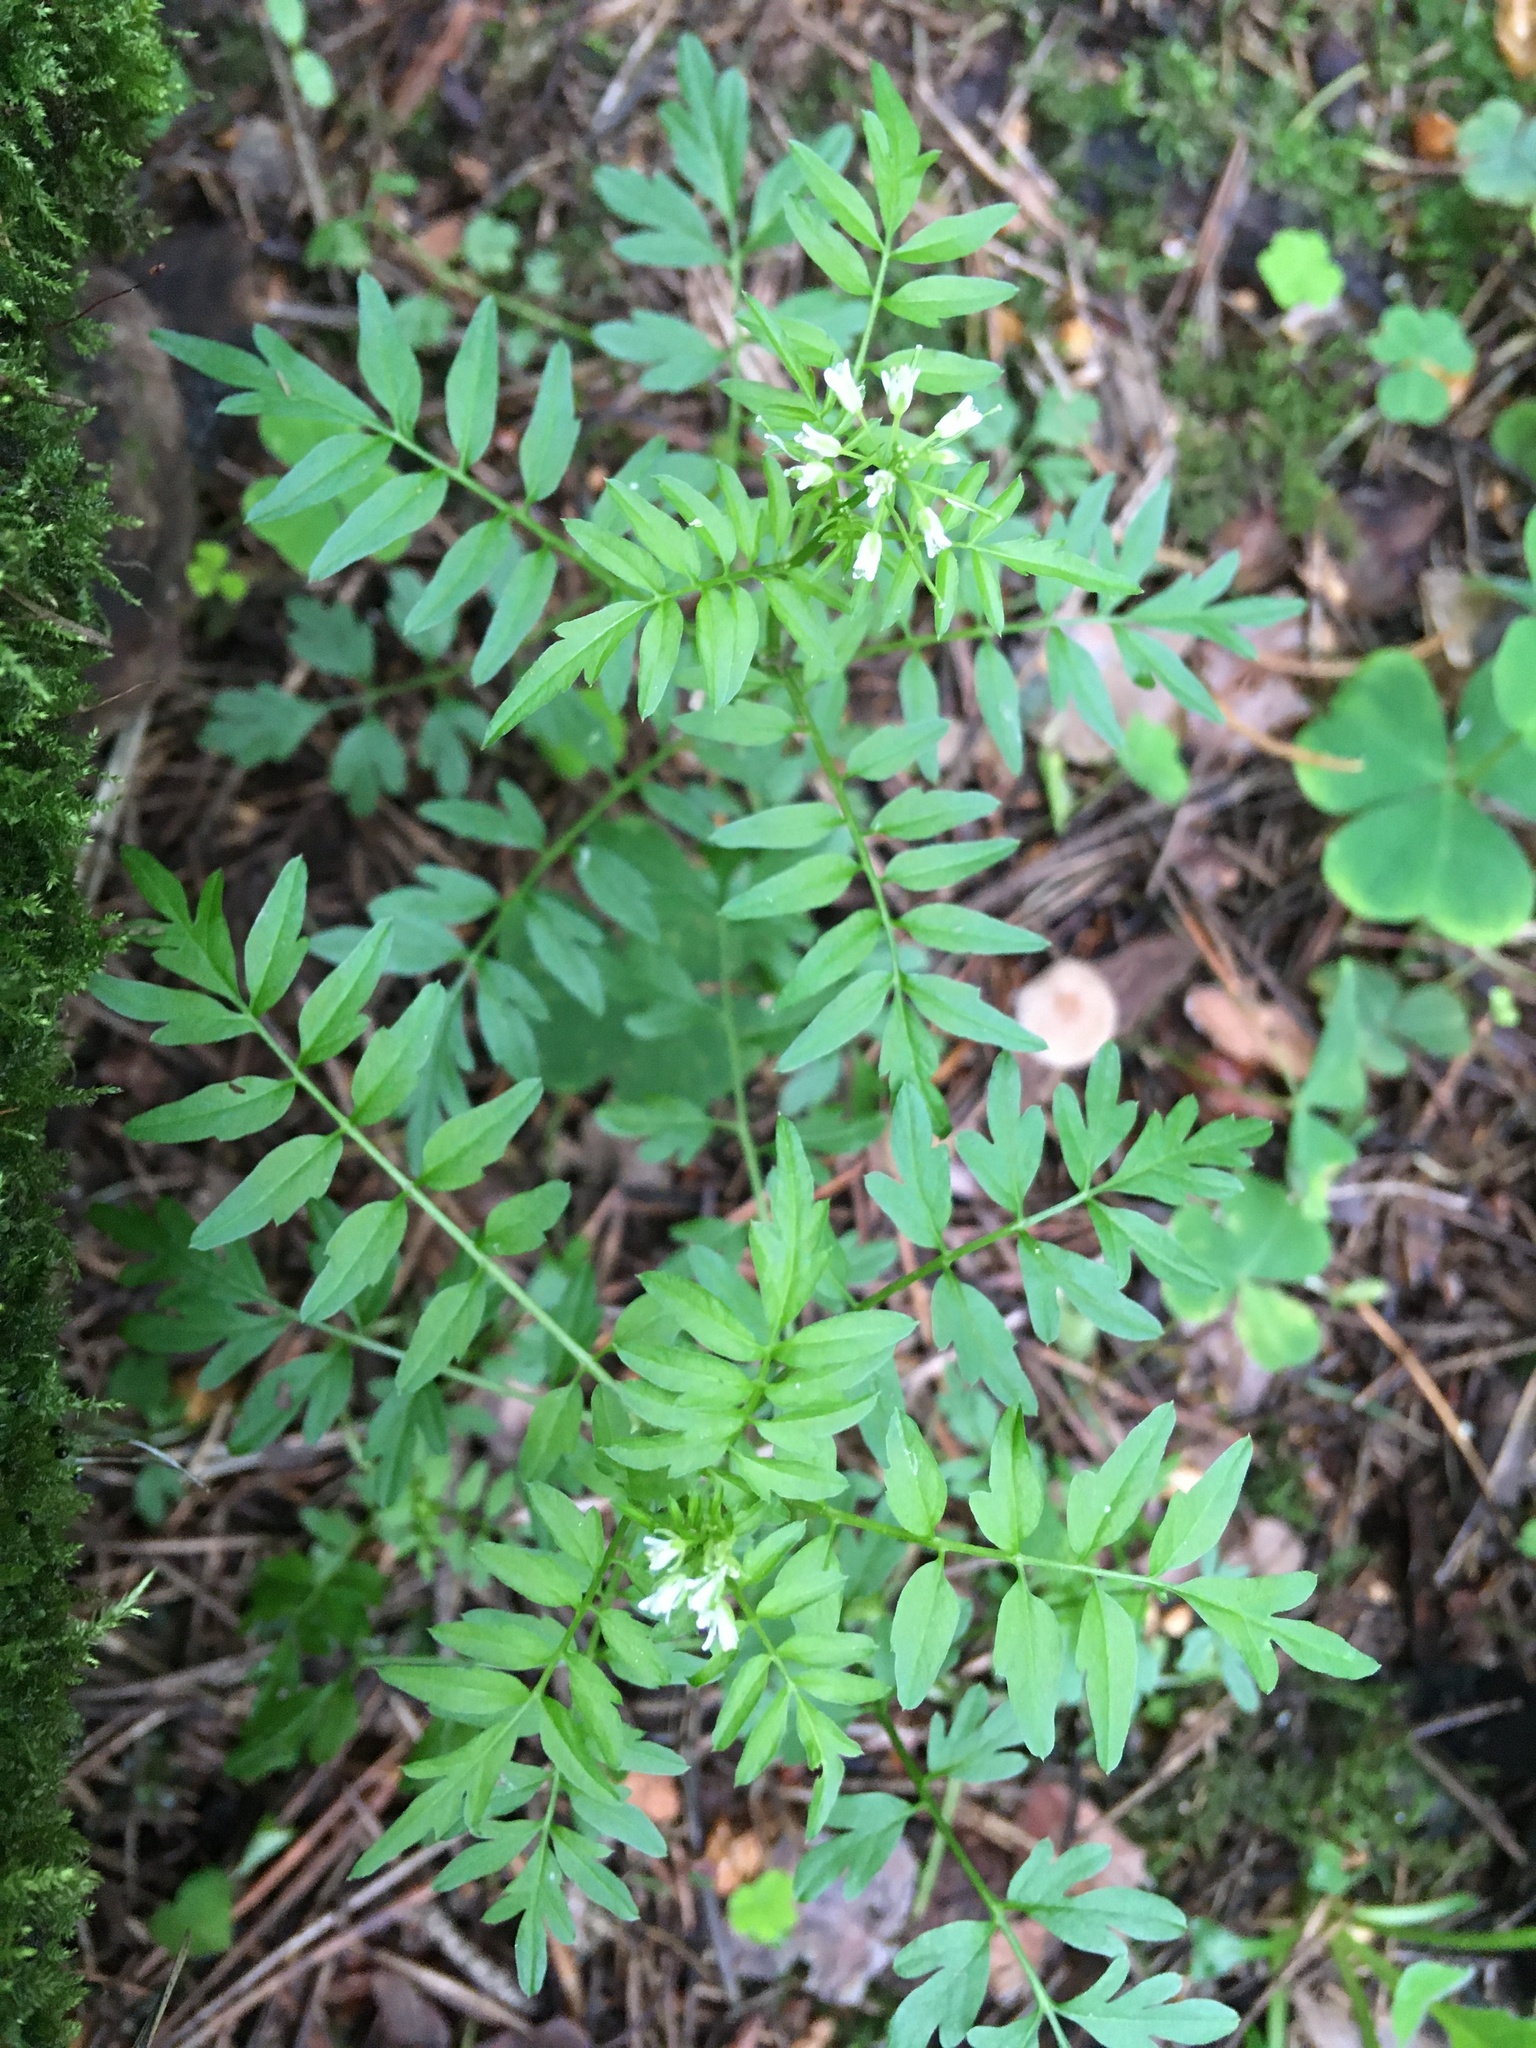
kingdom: Plantae
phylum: Tracheophyta
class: Magnoliopsida
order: Brassicales
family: Brassicaceae
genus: Cardamine
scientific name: Cardamine impatiens
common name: Narrow-leaved bitter-cress
